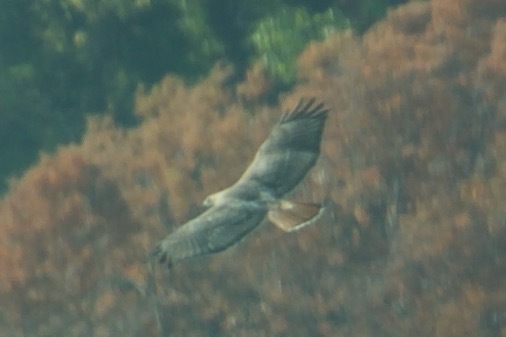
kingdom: Animalia
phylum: Chordata
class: Aves
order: Accipitriformes
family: Accipitridae
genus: Buteo
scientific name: Buteo jamaicensis
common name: Red-tailed hawk
